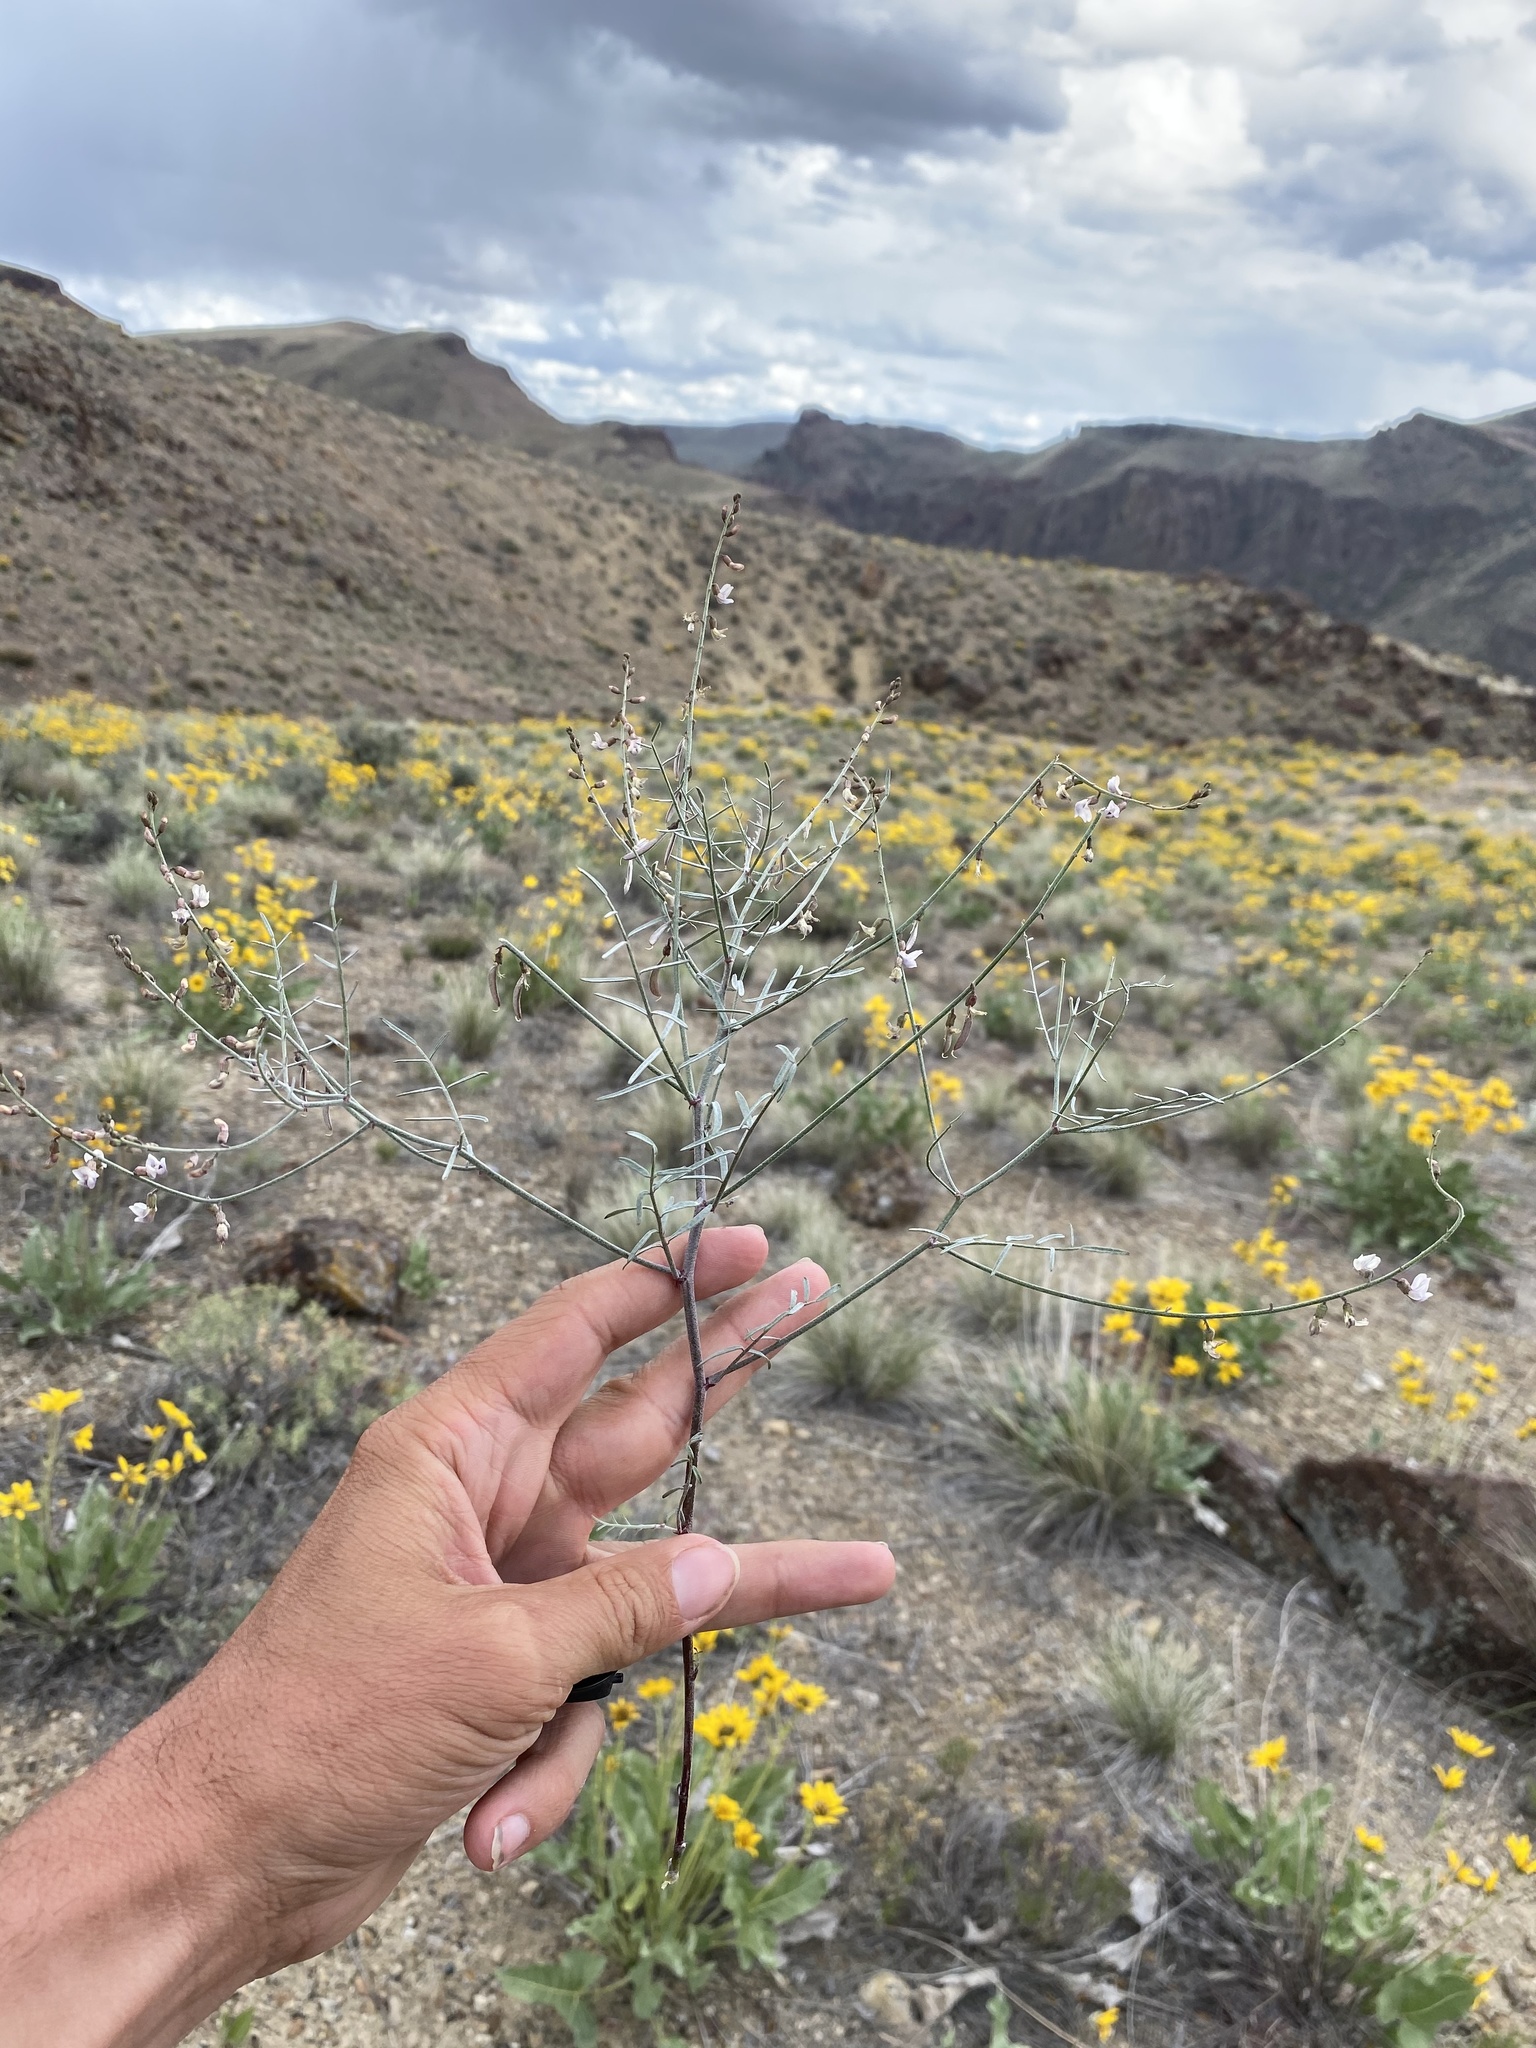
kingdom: Plantae
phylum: Tracheophyta
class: Magnoliopsida
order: Fabales
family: Fabaceae
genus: Astragalus
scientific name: Astragalus solitarius
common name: Lonesome milk-vetch
